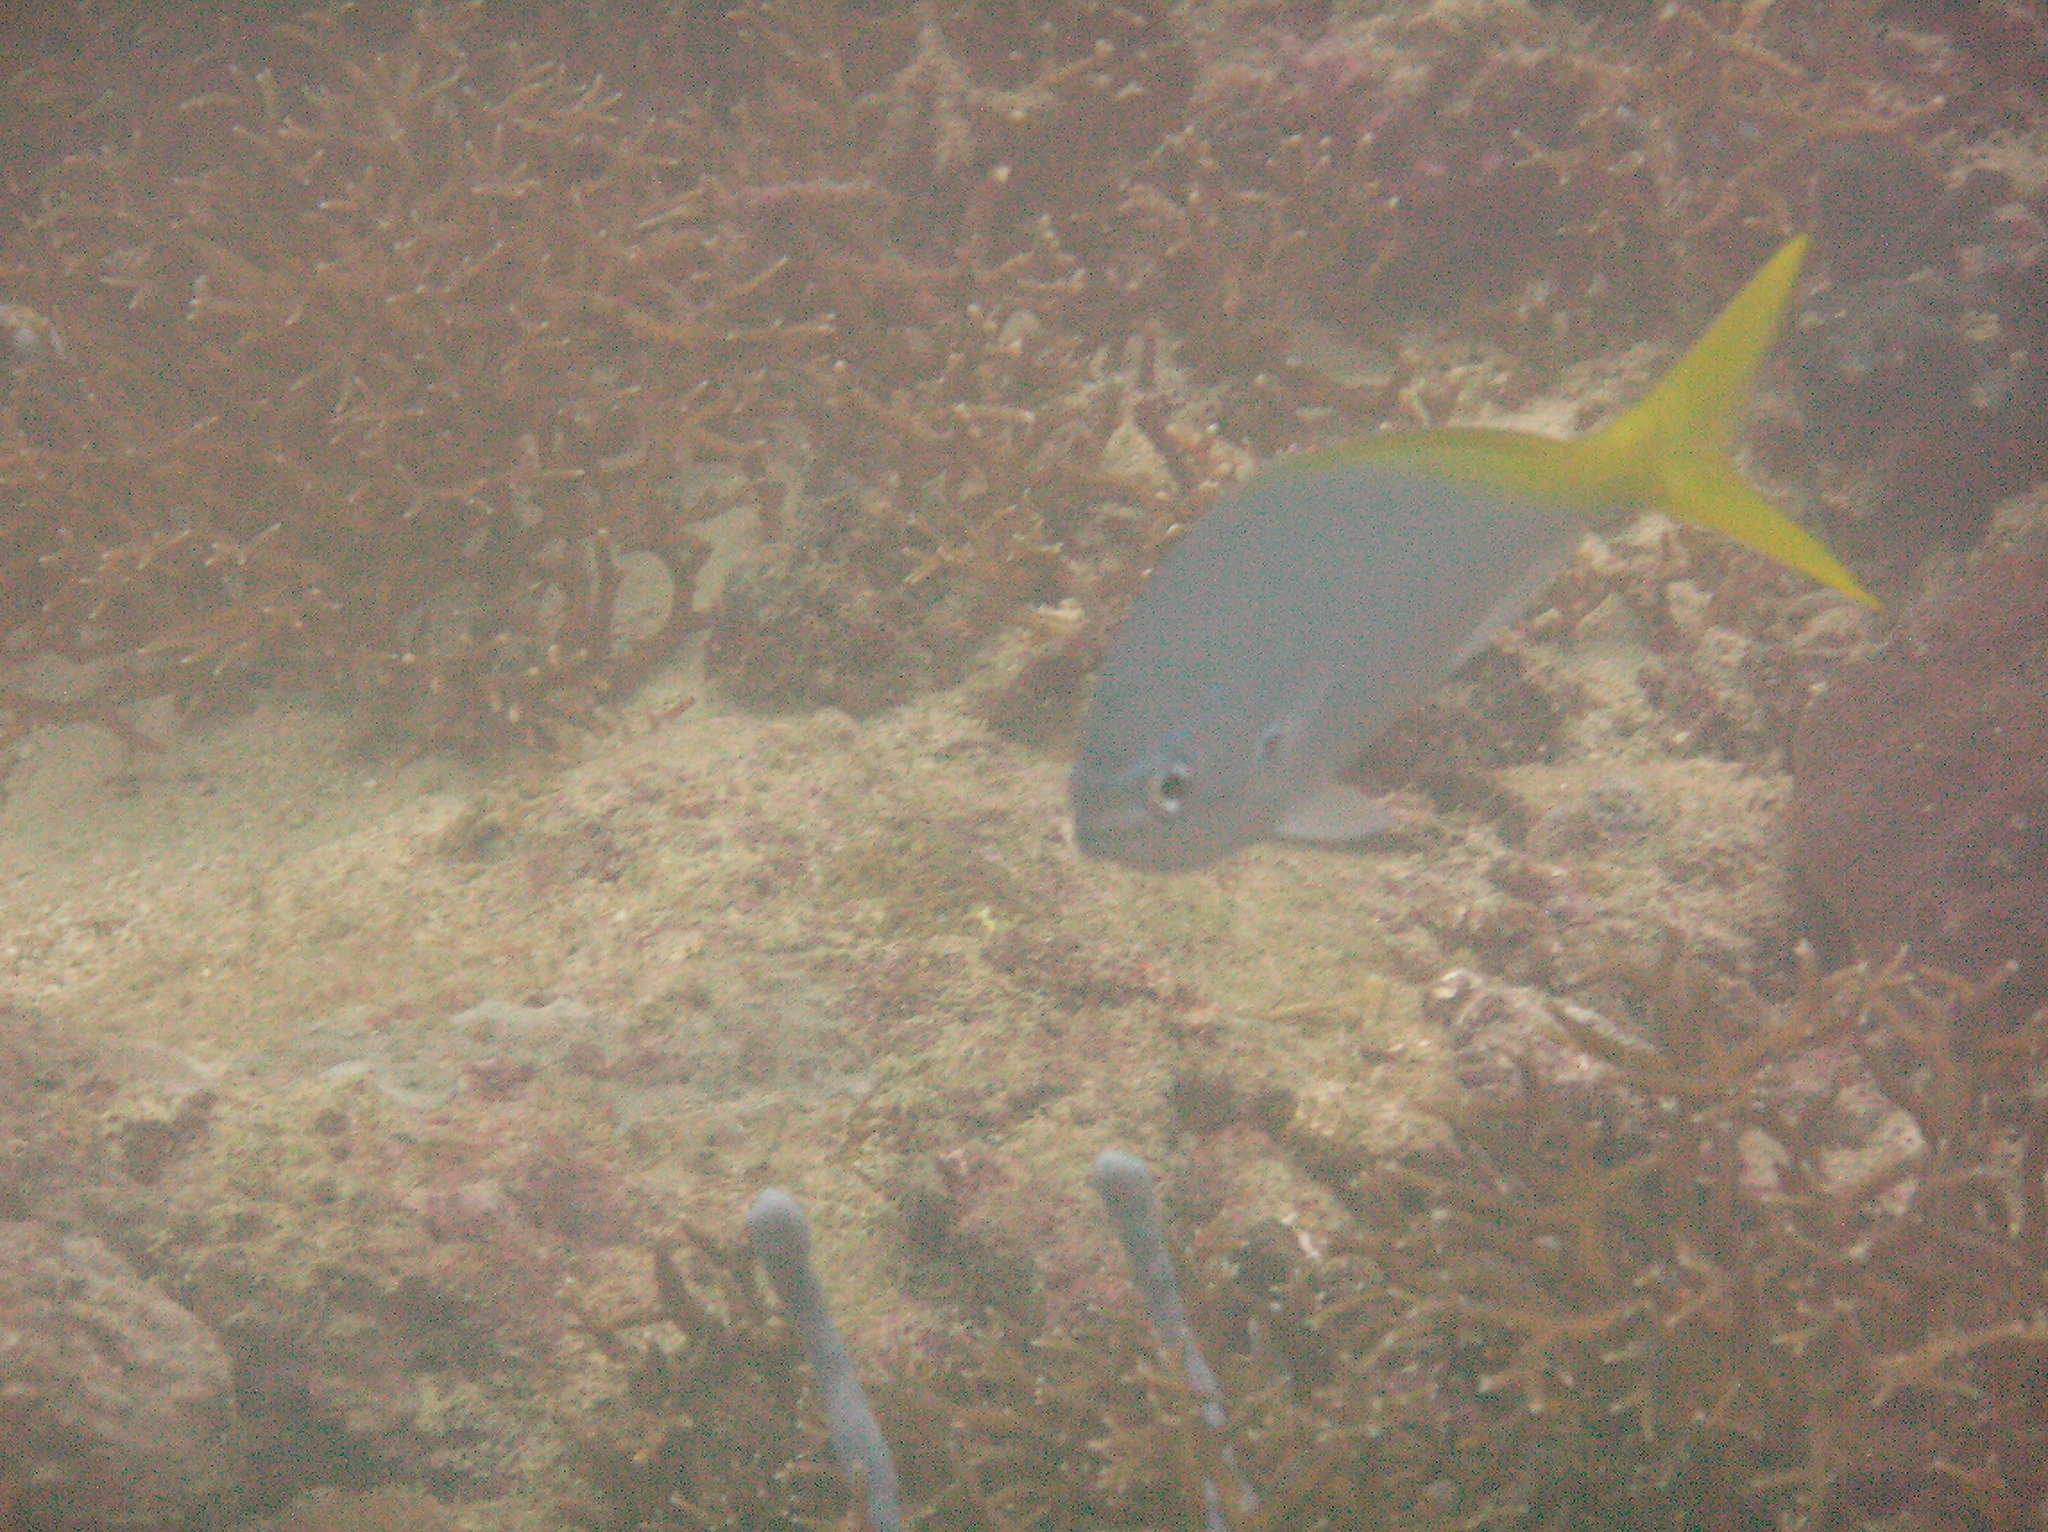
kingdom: Animalia
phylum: Chordata
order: Perciformes
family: Caesionidae
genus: Caesio
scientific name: Caesio cuning
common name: Red-bellied fusilier
